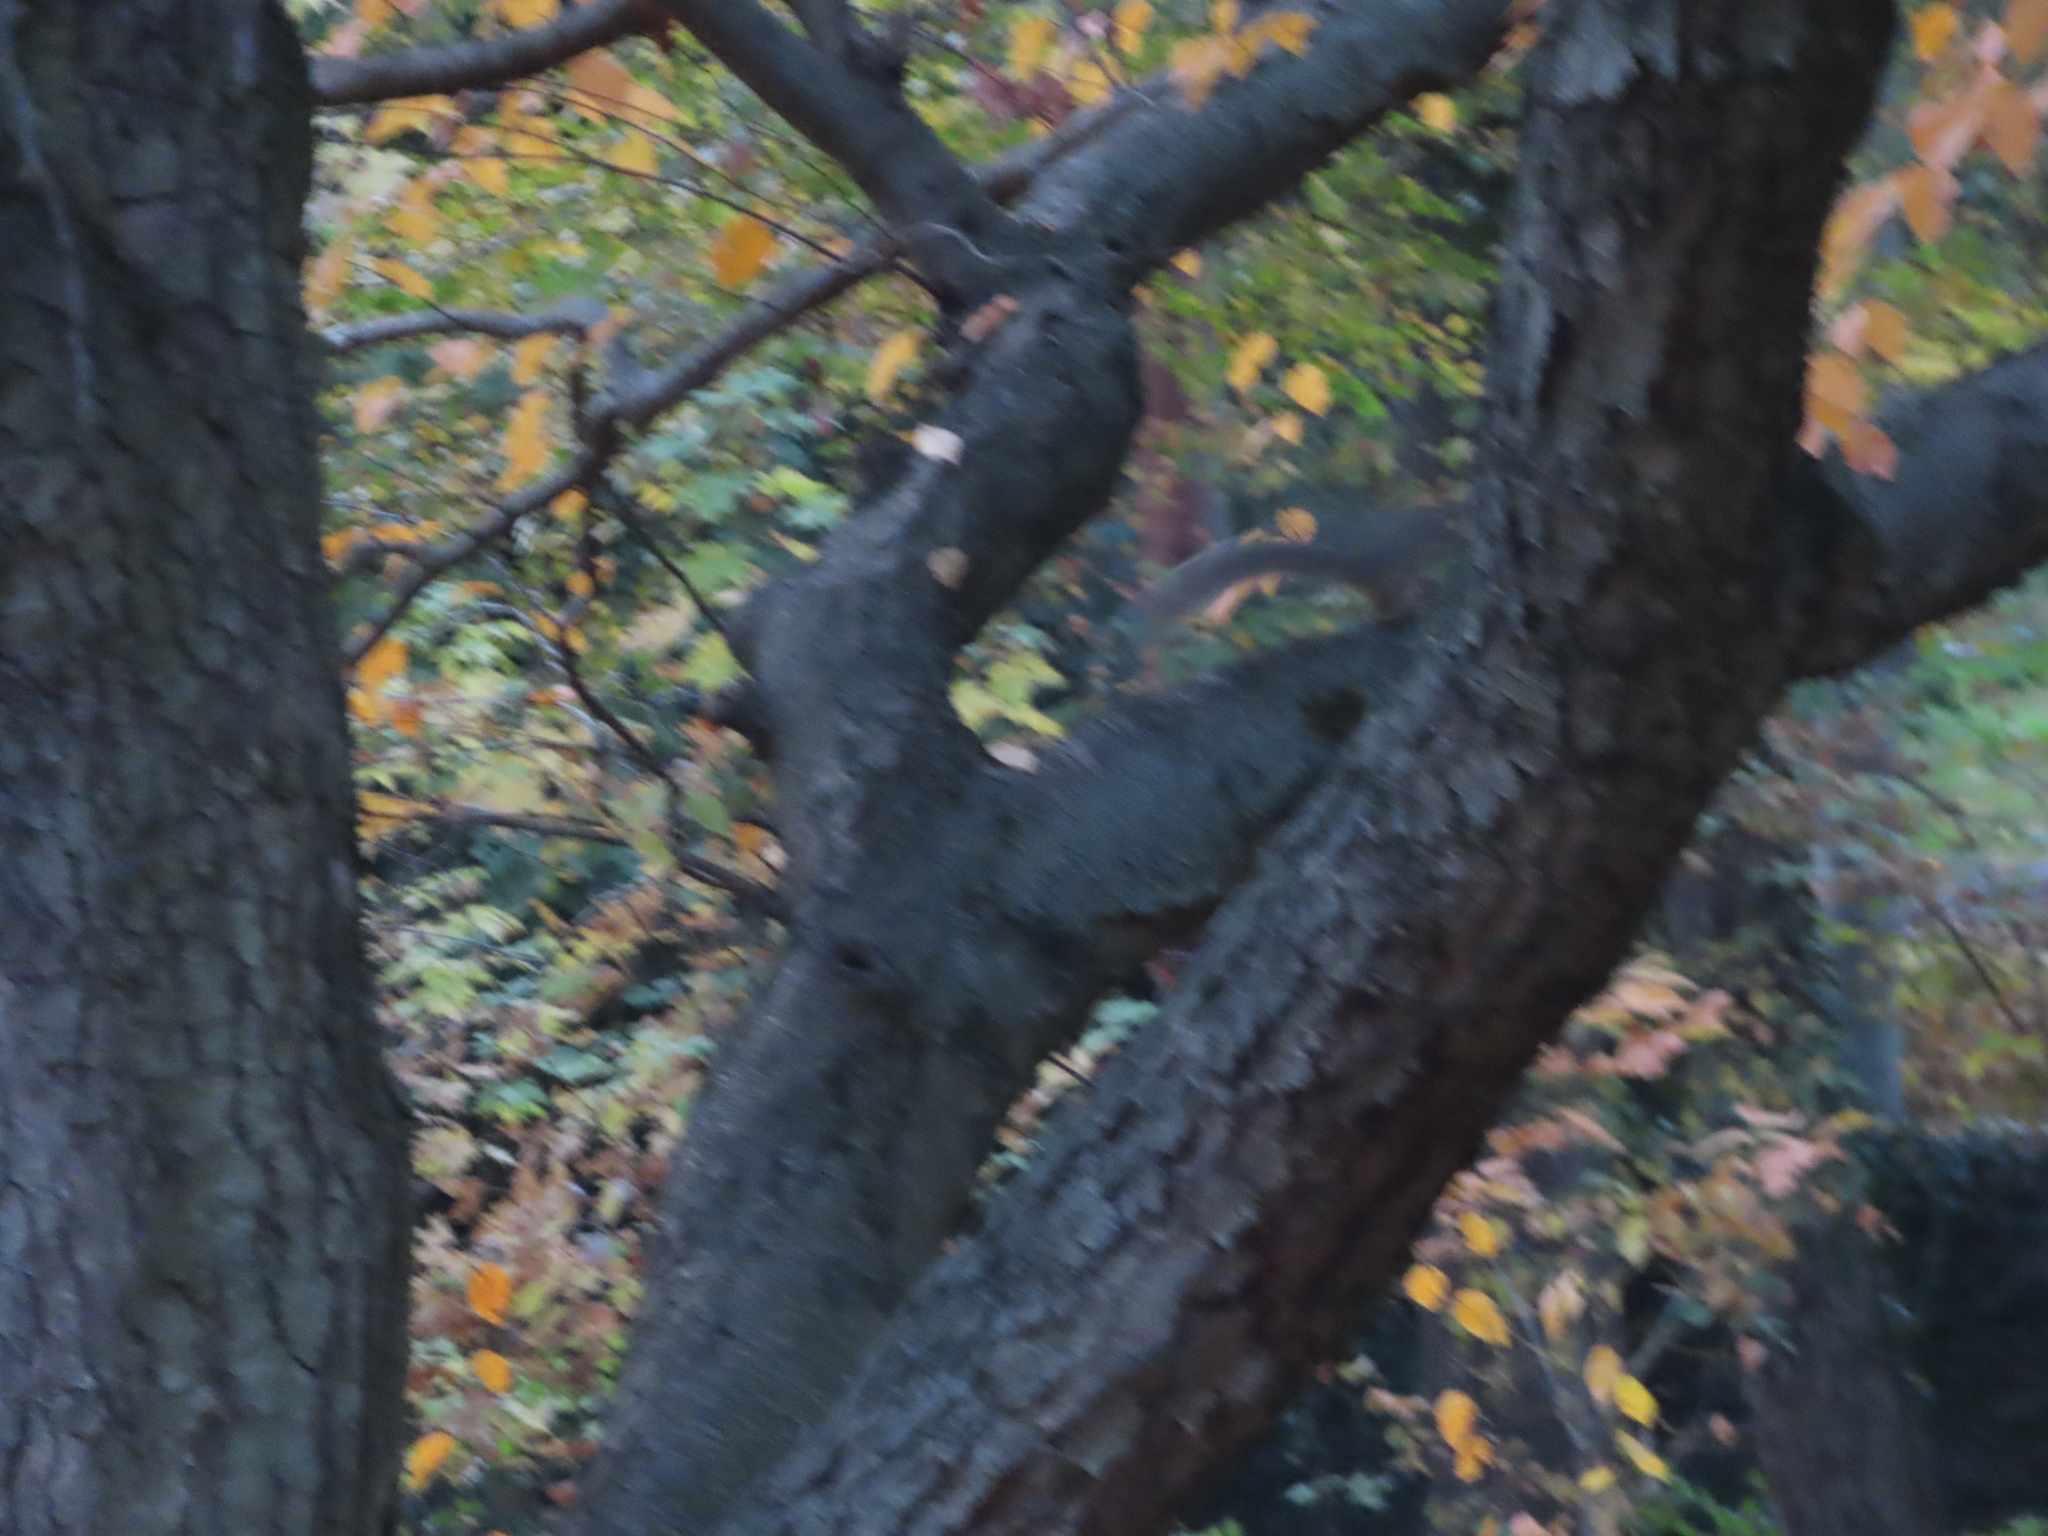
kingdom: Animalia
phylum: Chordata
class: Mammalia
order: Rodentia
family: Sciuridae
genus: Sciurus
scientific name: Sciurus carolinensis
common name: Eastern gray squirrel
